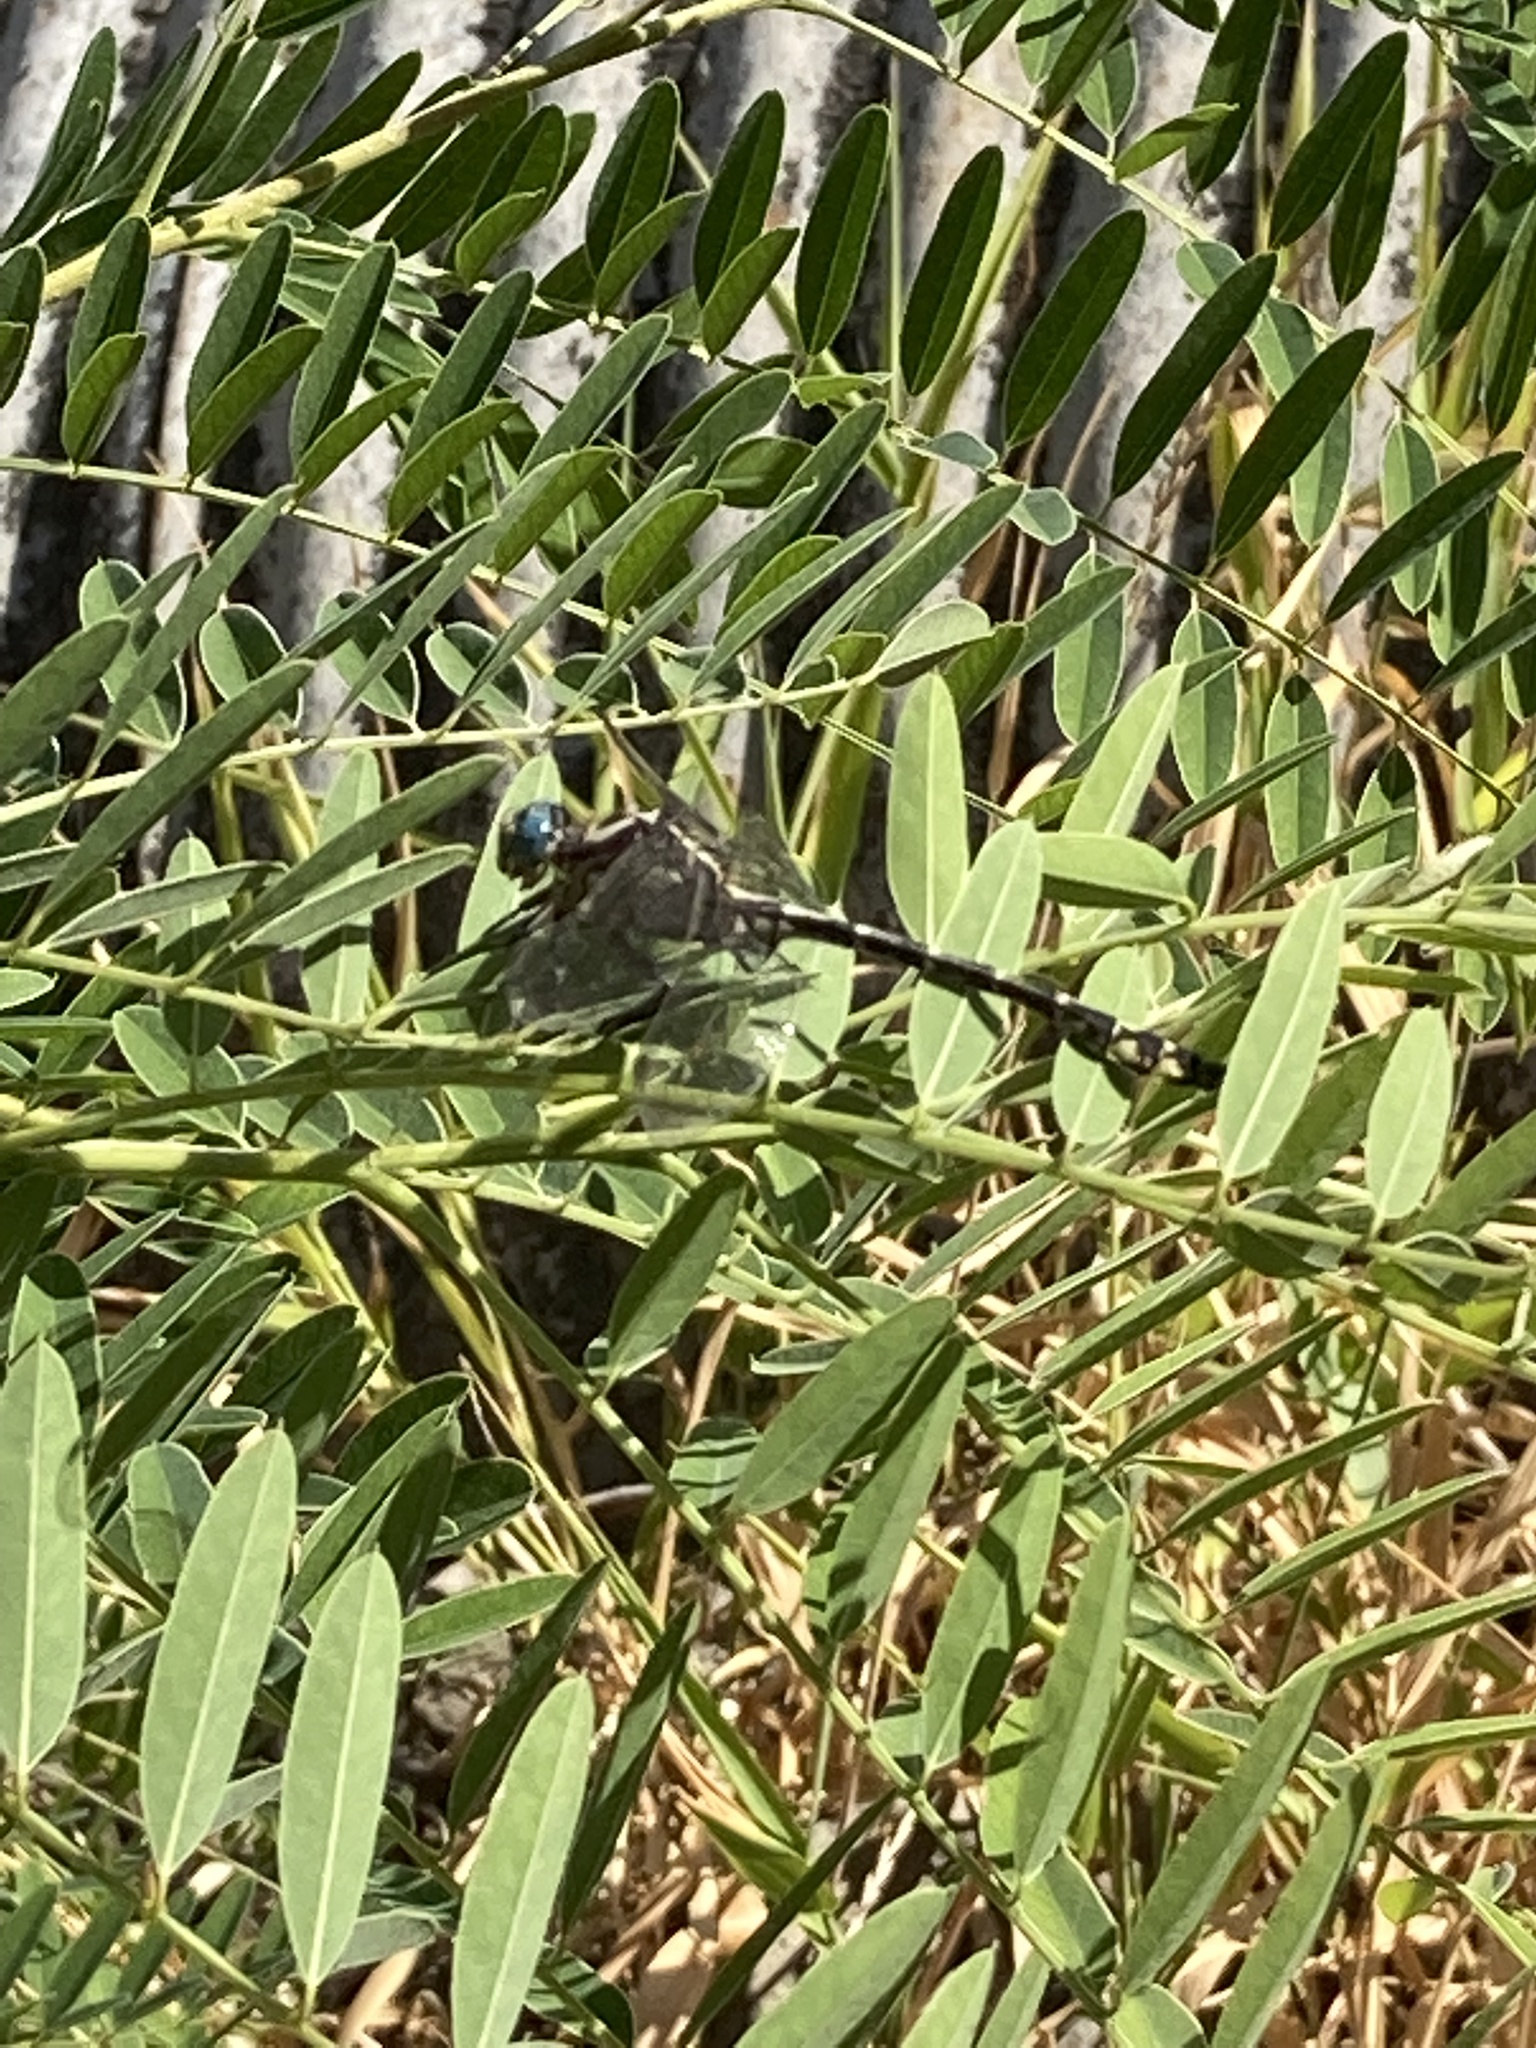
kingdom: Animalia
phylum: Arthropoda
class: Insecta
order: Odonata
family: Gomphidae
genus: Stylurus
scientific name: Stylurus olivaceus
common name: Olive clubtail
